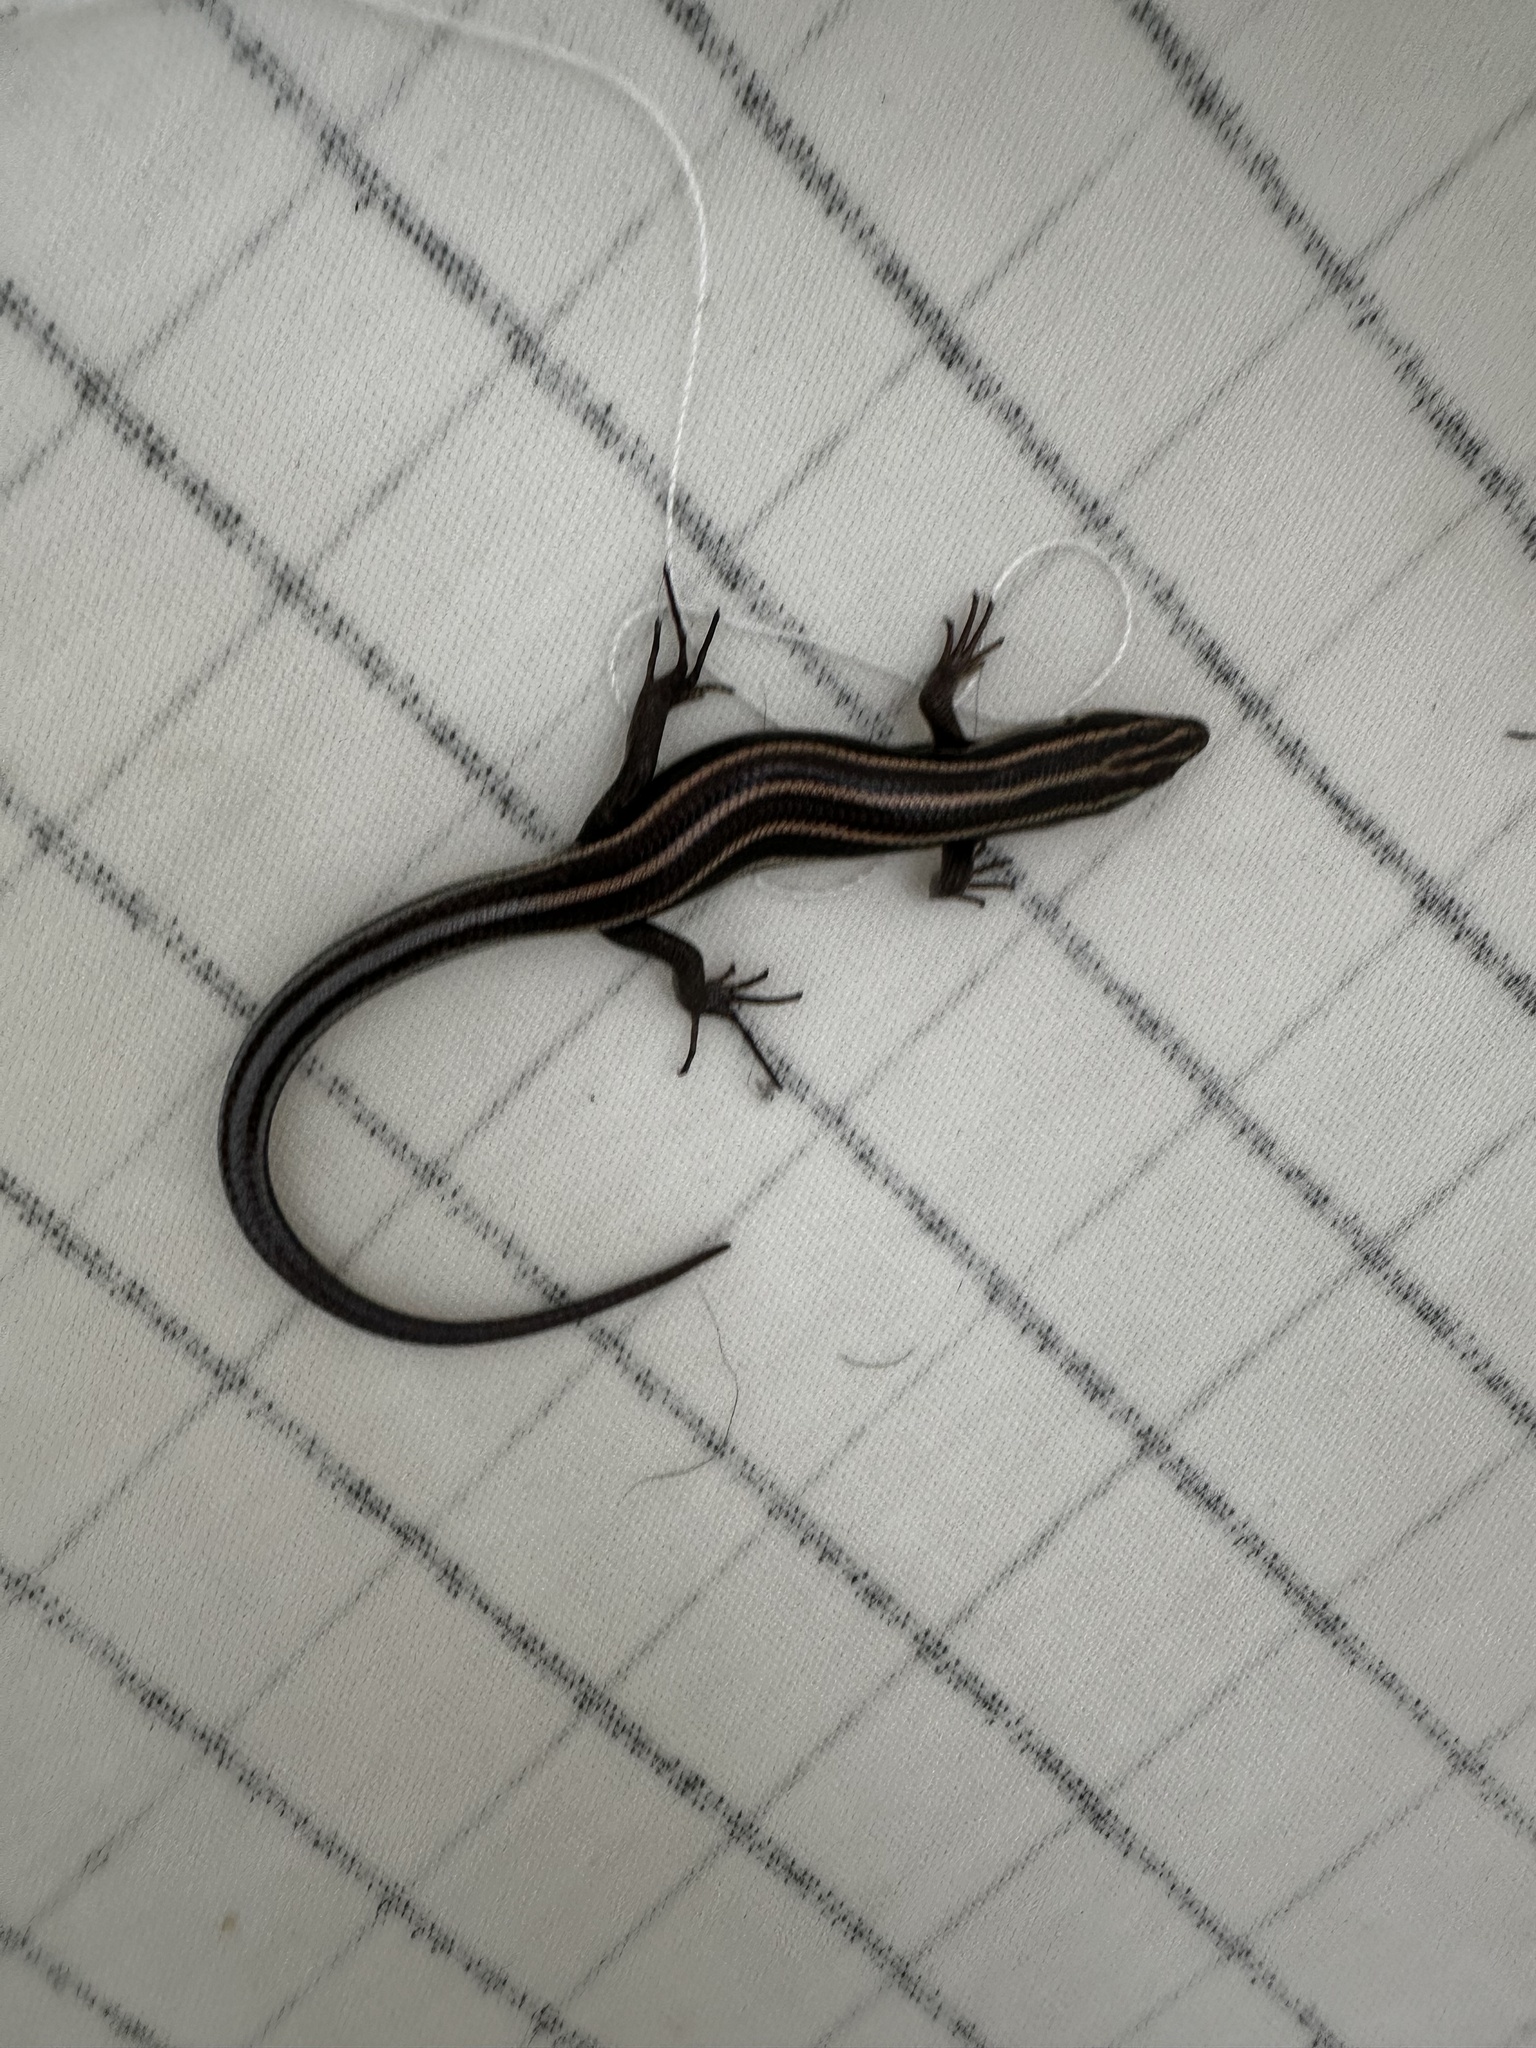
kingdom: Animalia
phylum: Chordata
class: Squamata
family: Scincidae
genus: Plestiodon
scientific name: Plestiodon fasciatus
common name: Five-lined skink
